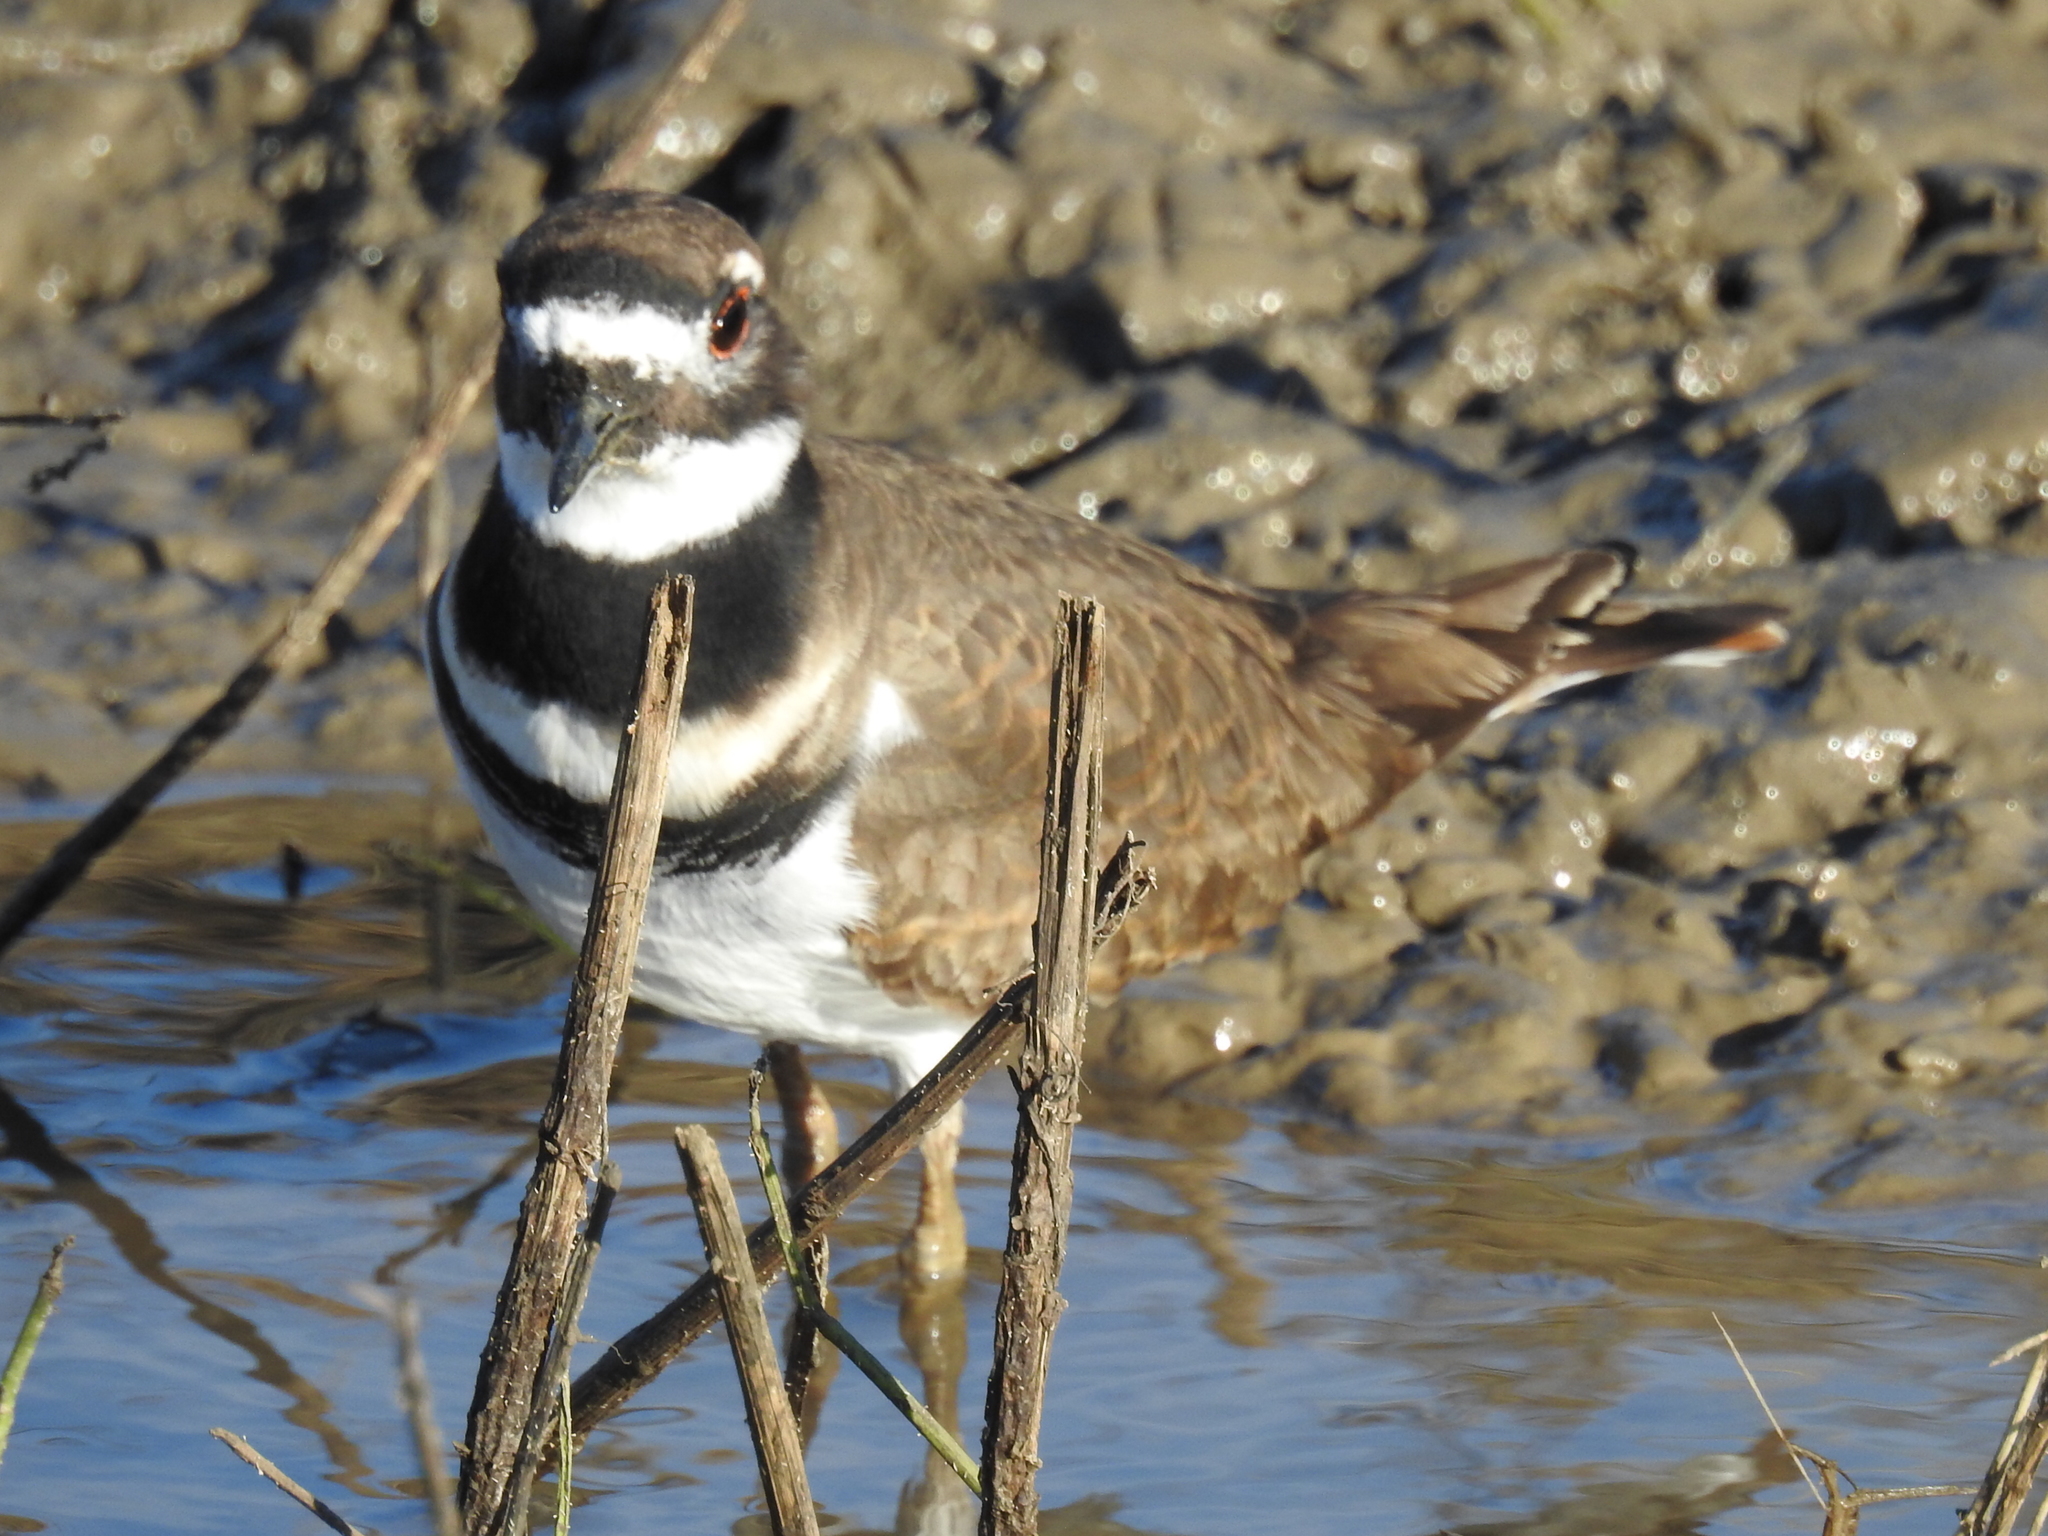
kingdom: Animalia
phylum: Chordata
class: Aves
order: Charadriiformes
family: Charadriidae
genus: Charadrius
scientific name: Charadrius vociferus
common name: Killdeer
